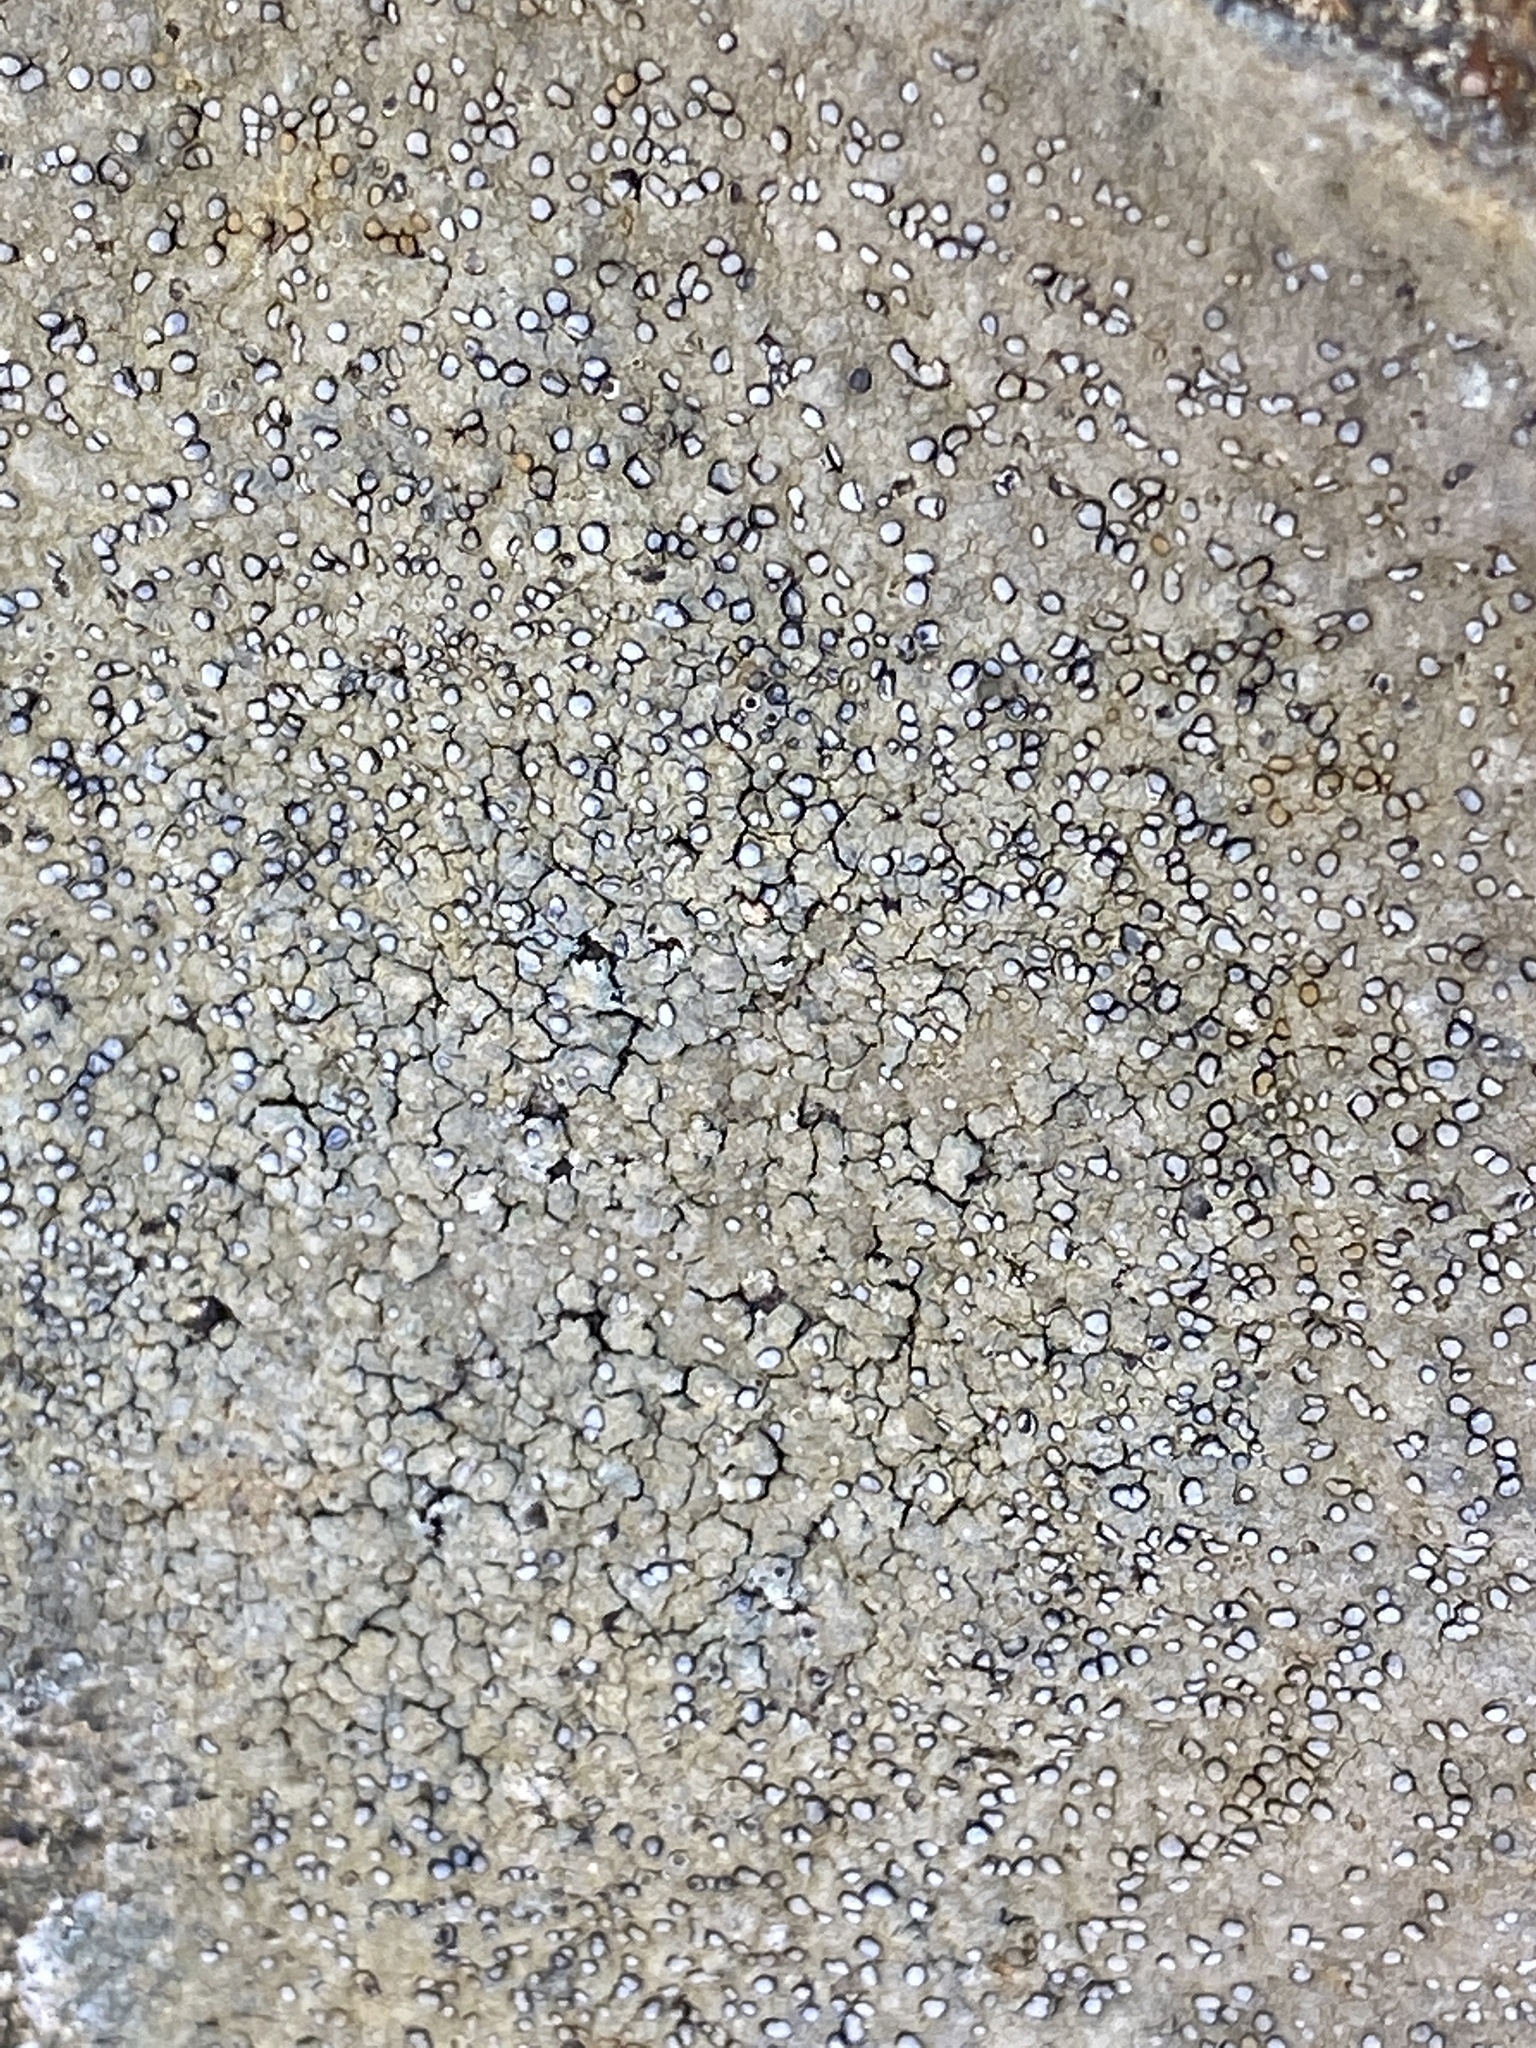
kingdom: Fungi
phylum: Ascomycota
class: Lecanoromycetes
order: Lecideales
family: Lecideaceae
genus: Porpidia
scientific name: Porpidia albocaerulescens
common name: Smokey-eyed boulder lichen
